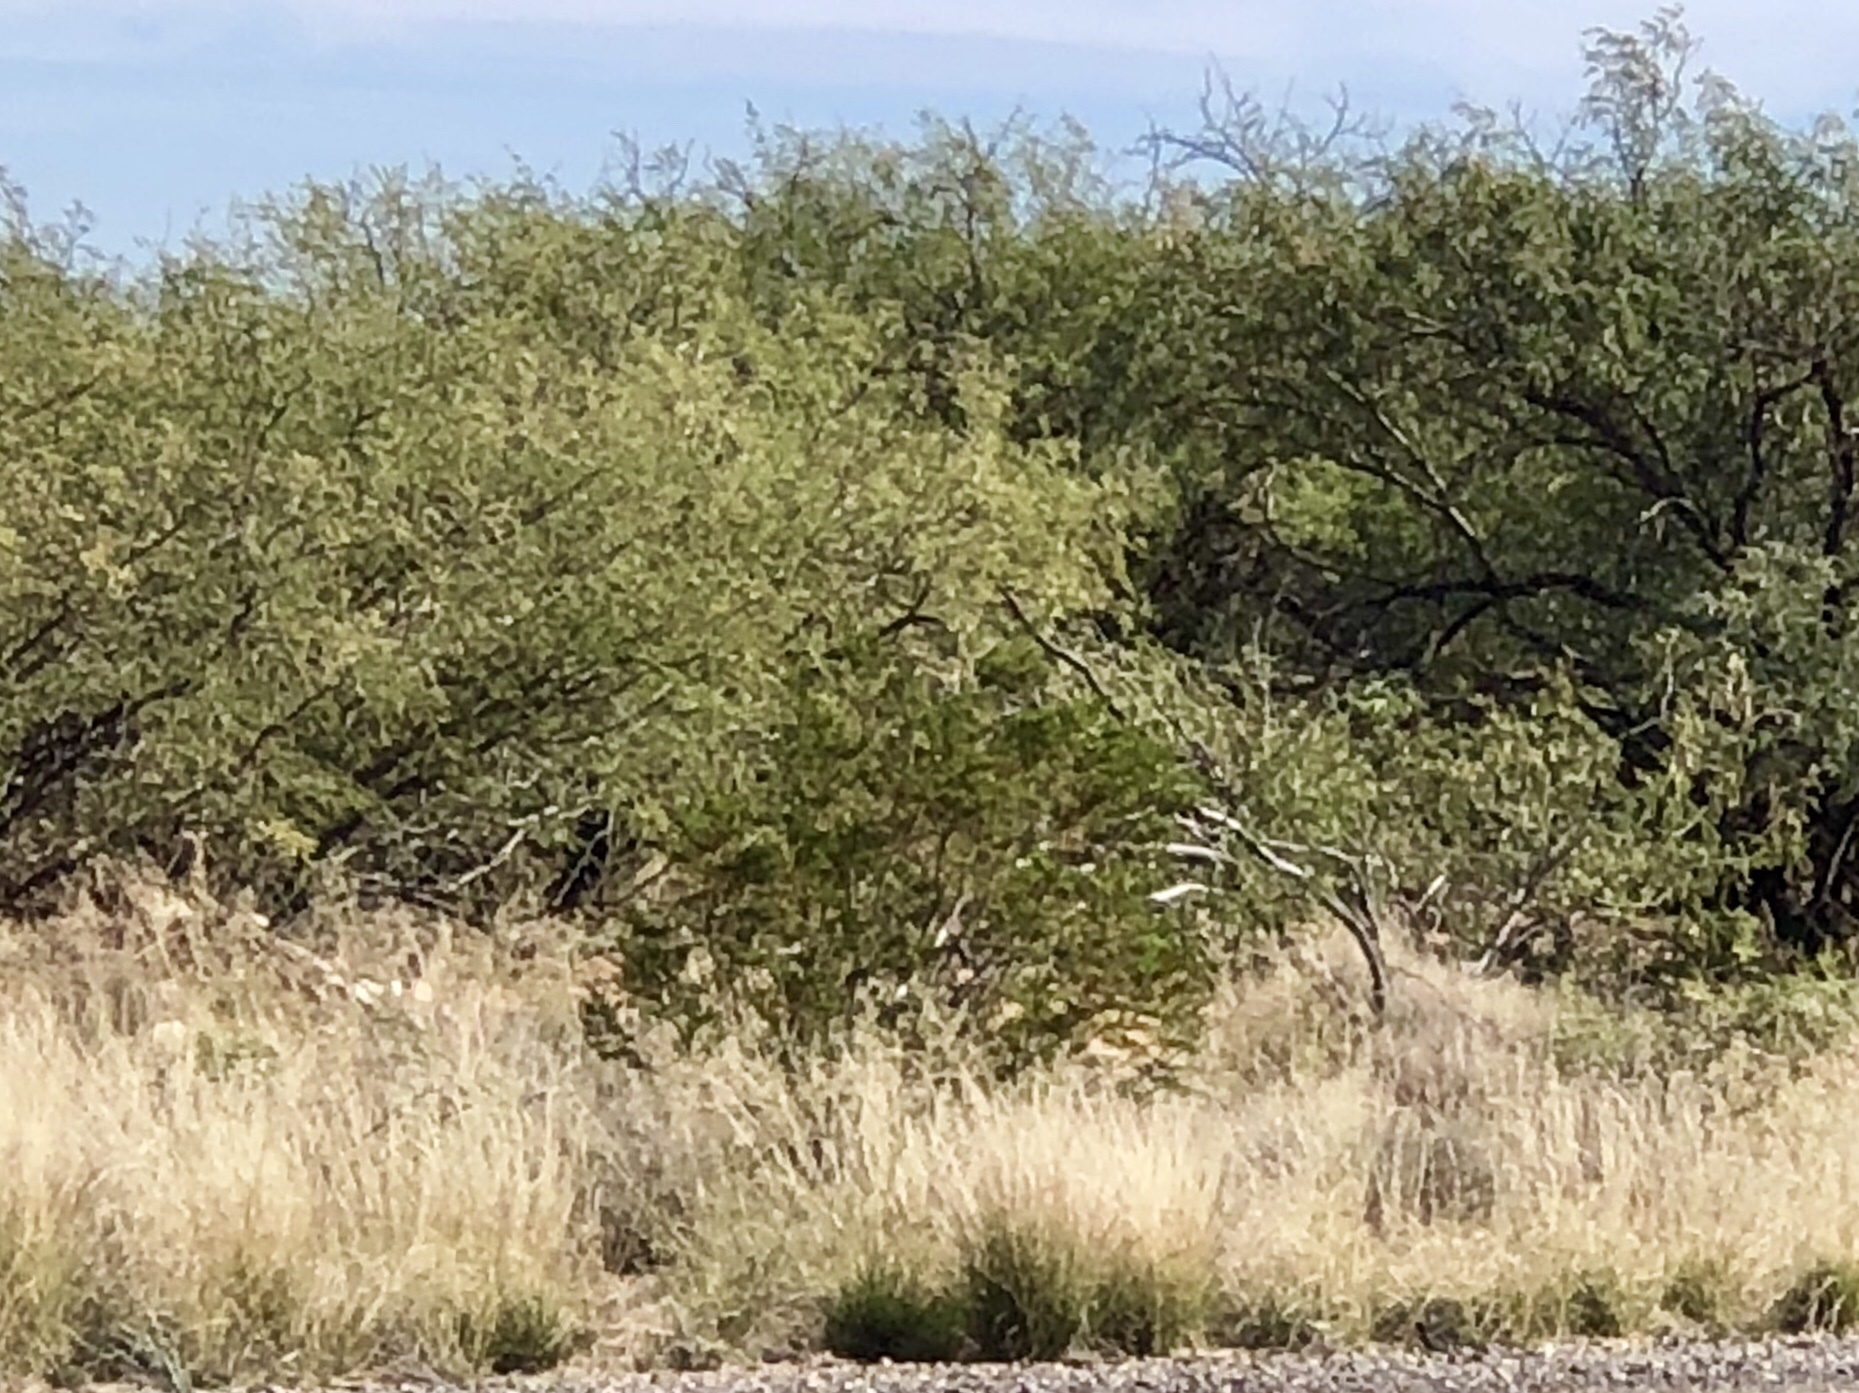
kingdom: Plantae
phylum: Tracheophyta
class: Magnoliopsida
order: Zygophyllales
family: Zygophyllaceae
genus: Larrea
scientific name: Larrea tridentata
